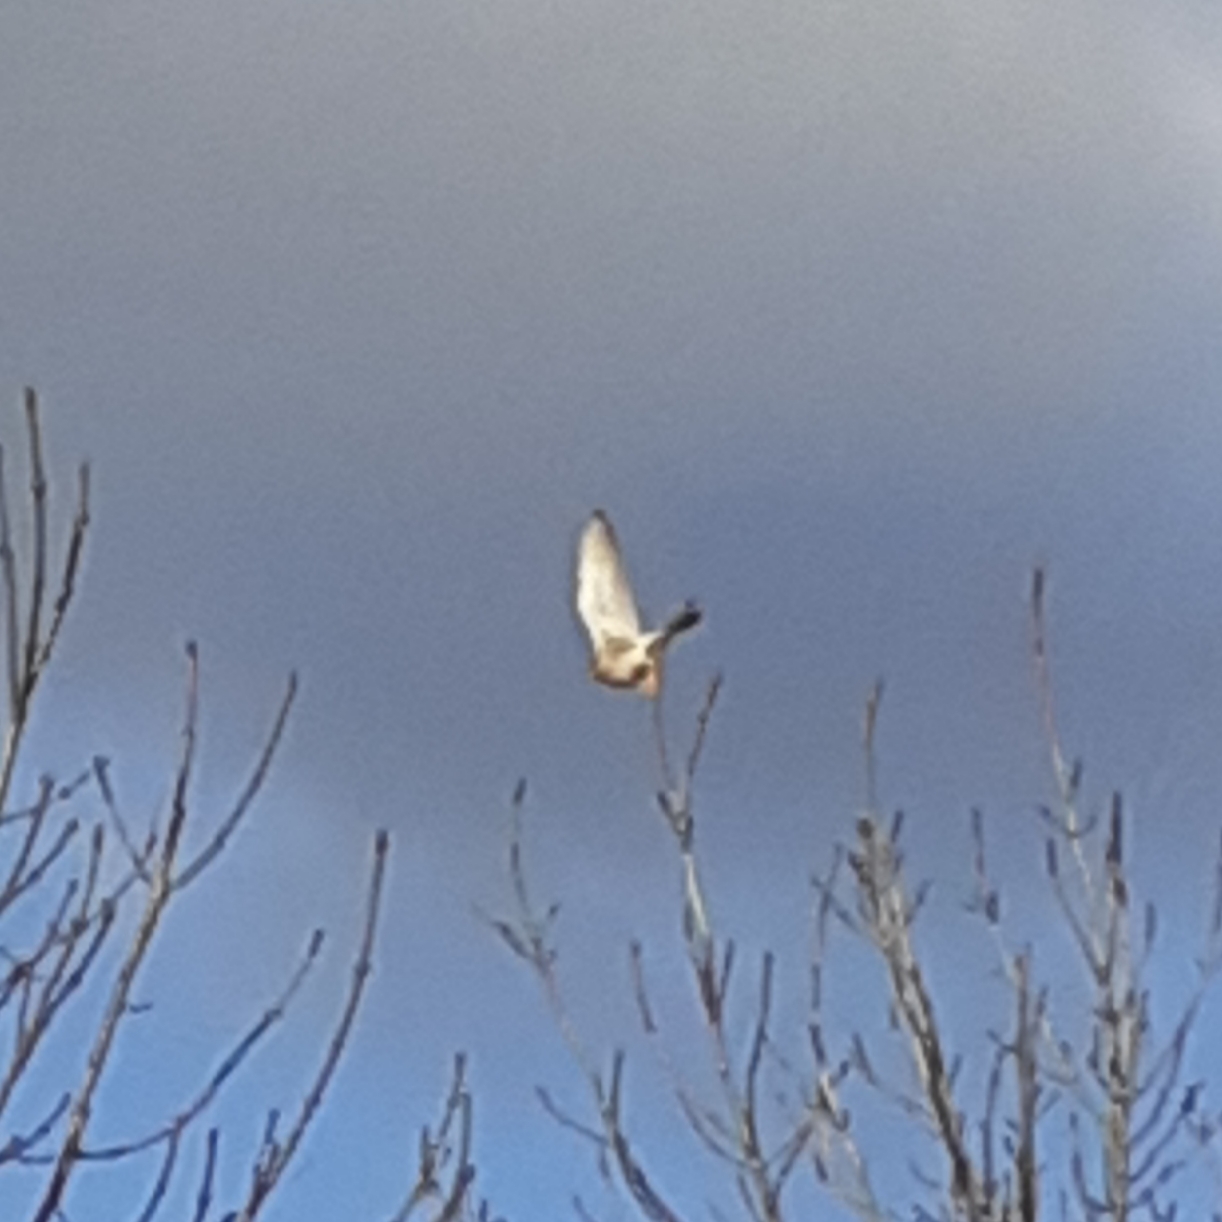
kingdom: Animalia
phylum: Chordata
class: Aves
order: Falconiformes
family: Falconidae
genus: Falco
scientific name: Falco tinnunculus
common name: Common kestrel
